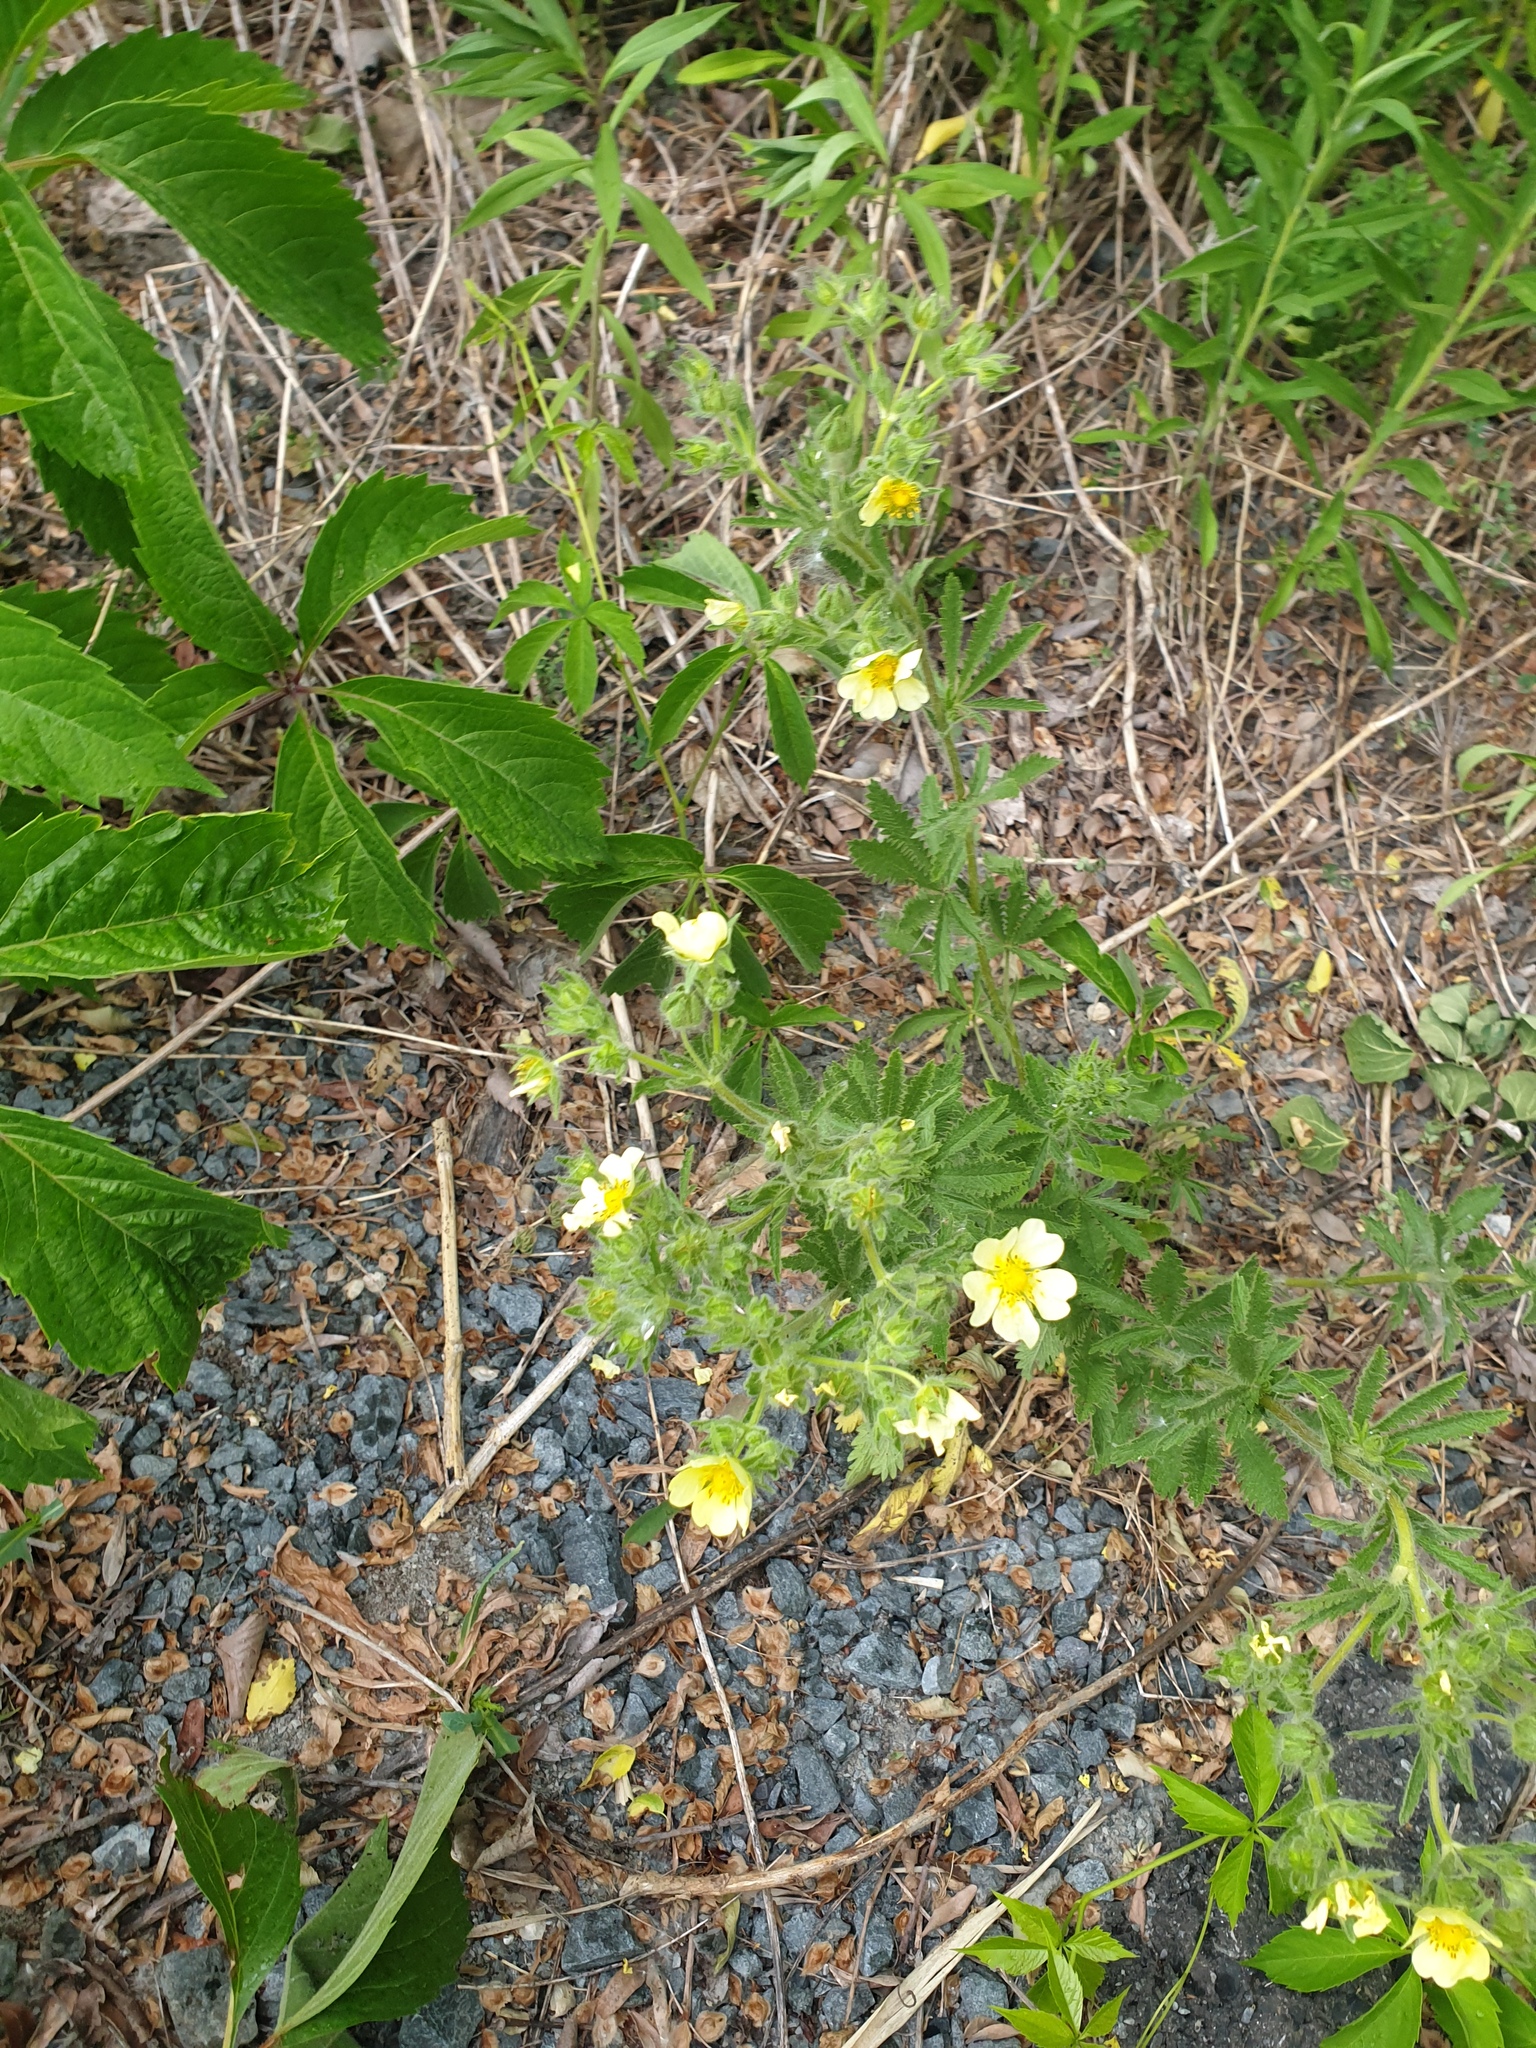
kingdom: Plantae
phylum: Tracheophyta
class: Magnoliopsida
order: Rosales
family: Rosaceae
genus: Potentilla
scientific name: Potentilla recta
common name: Sulphur cinquefoil
